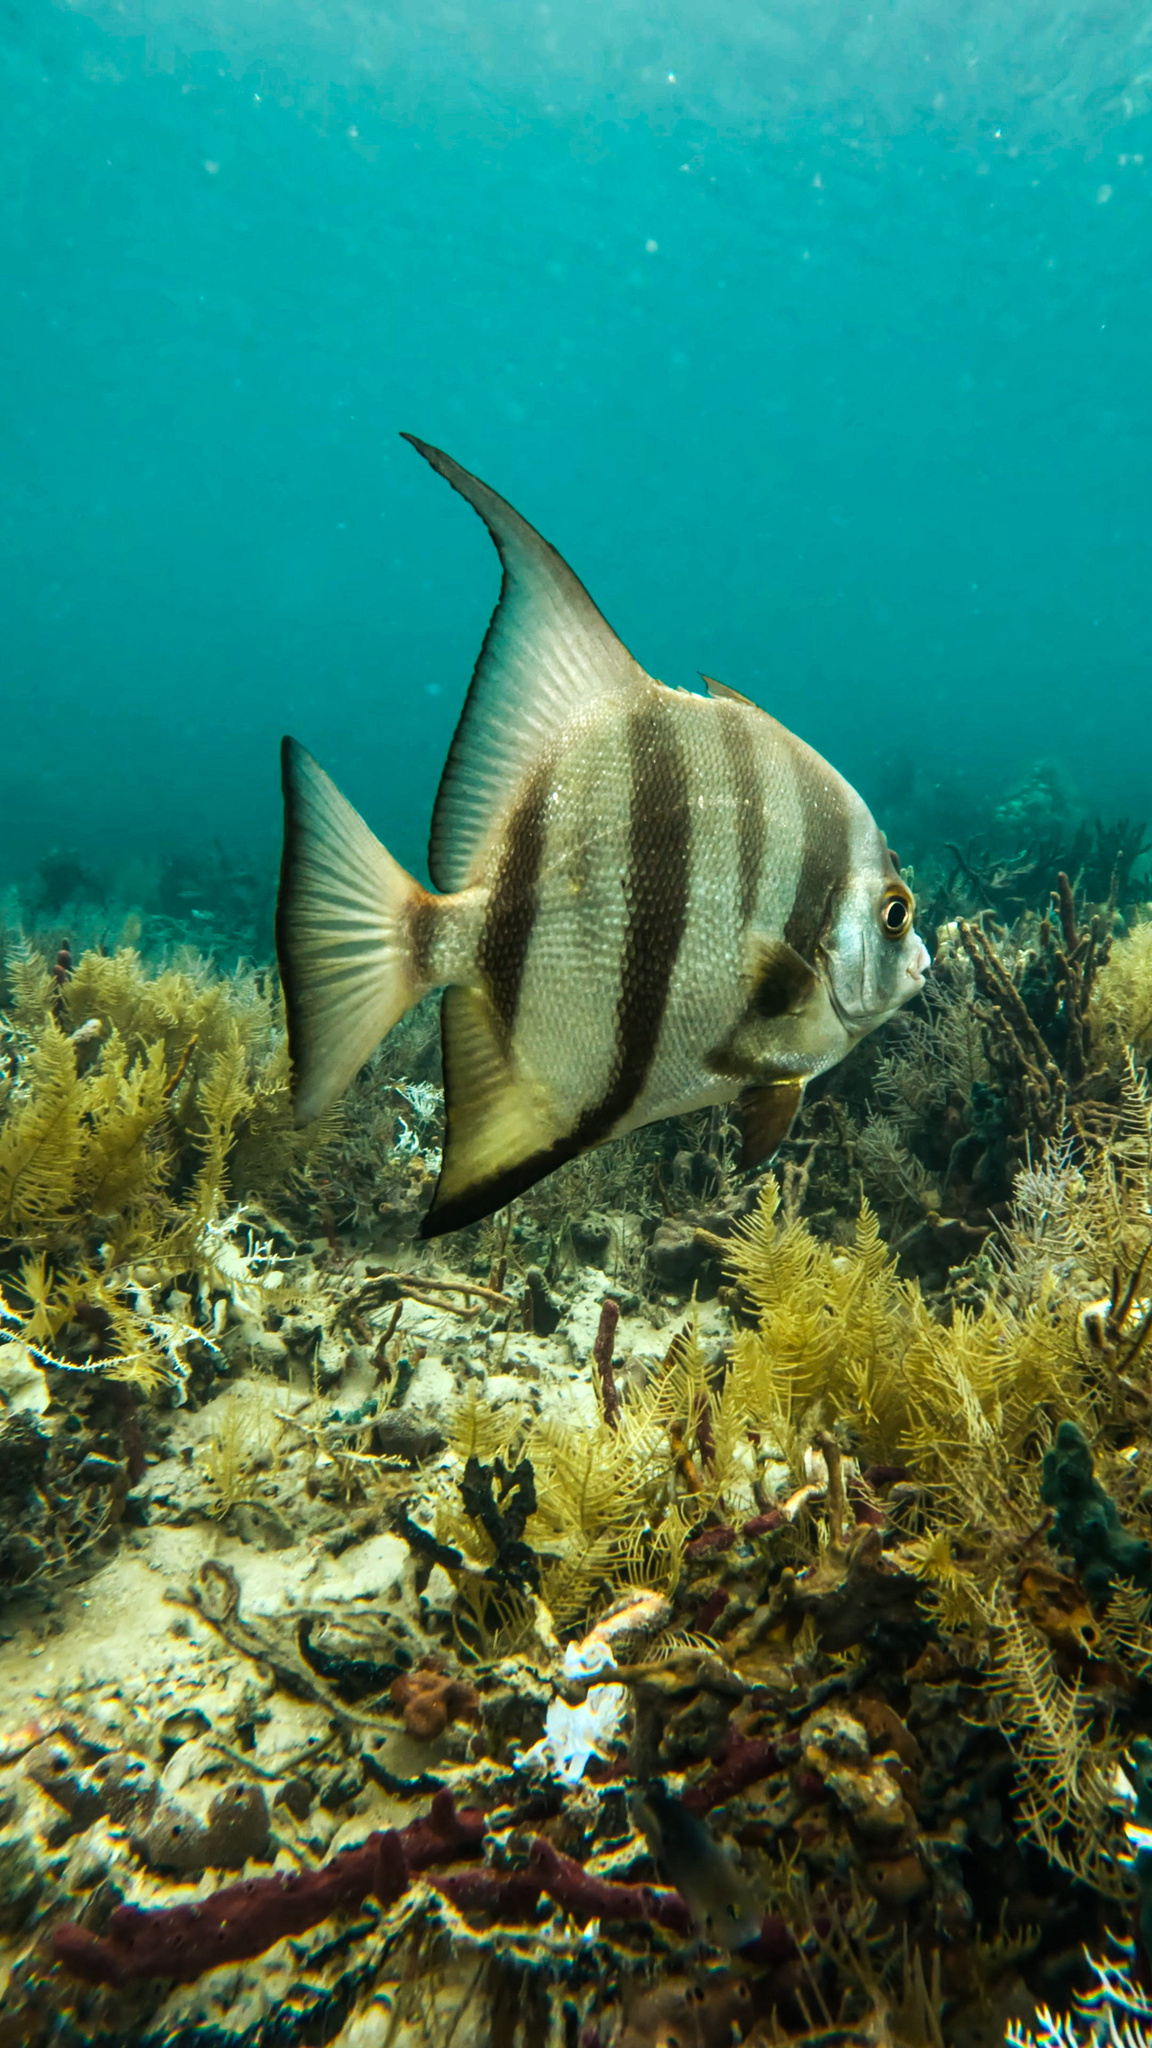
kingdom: Animalia
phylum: Chordata
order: Perciformes
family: Ephippidae
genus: Chaetodipterus
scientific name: Chaetodipterus faber
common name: Ocean cobbler
